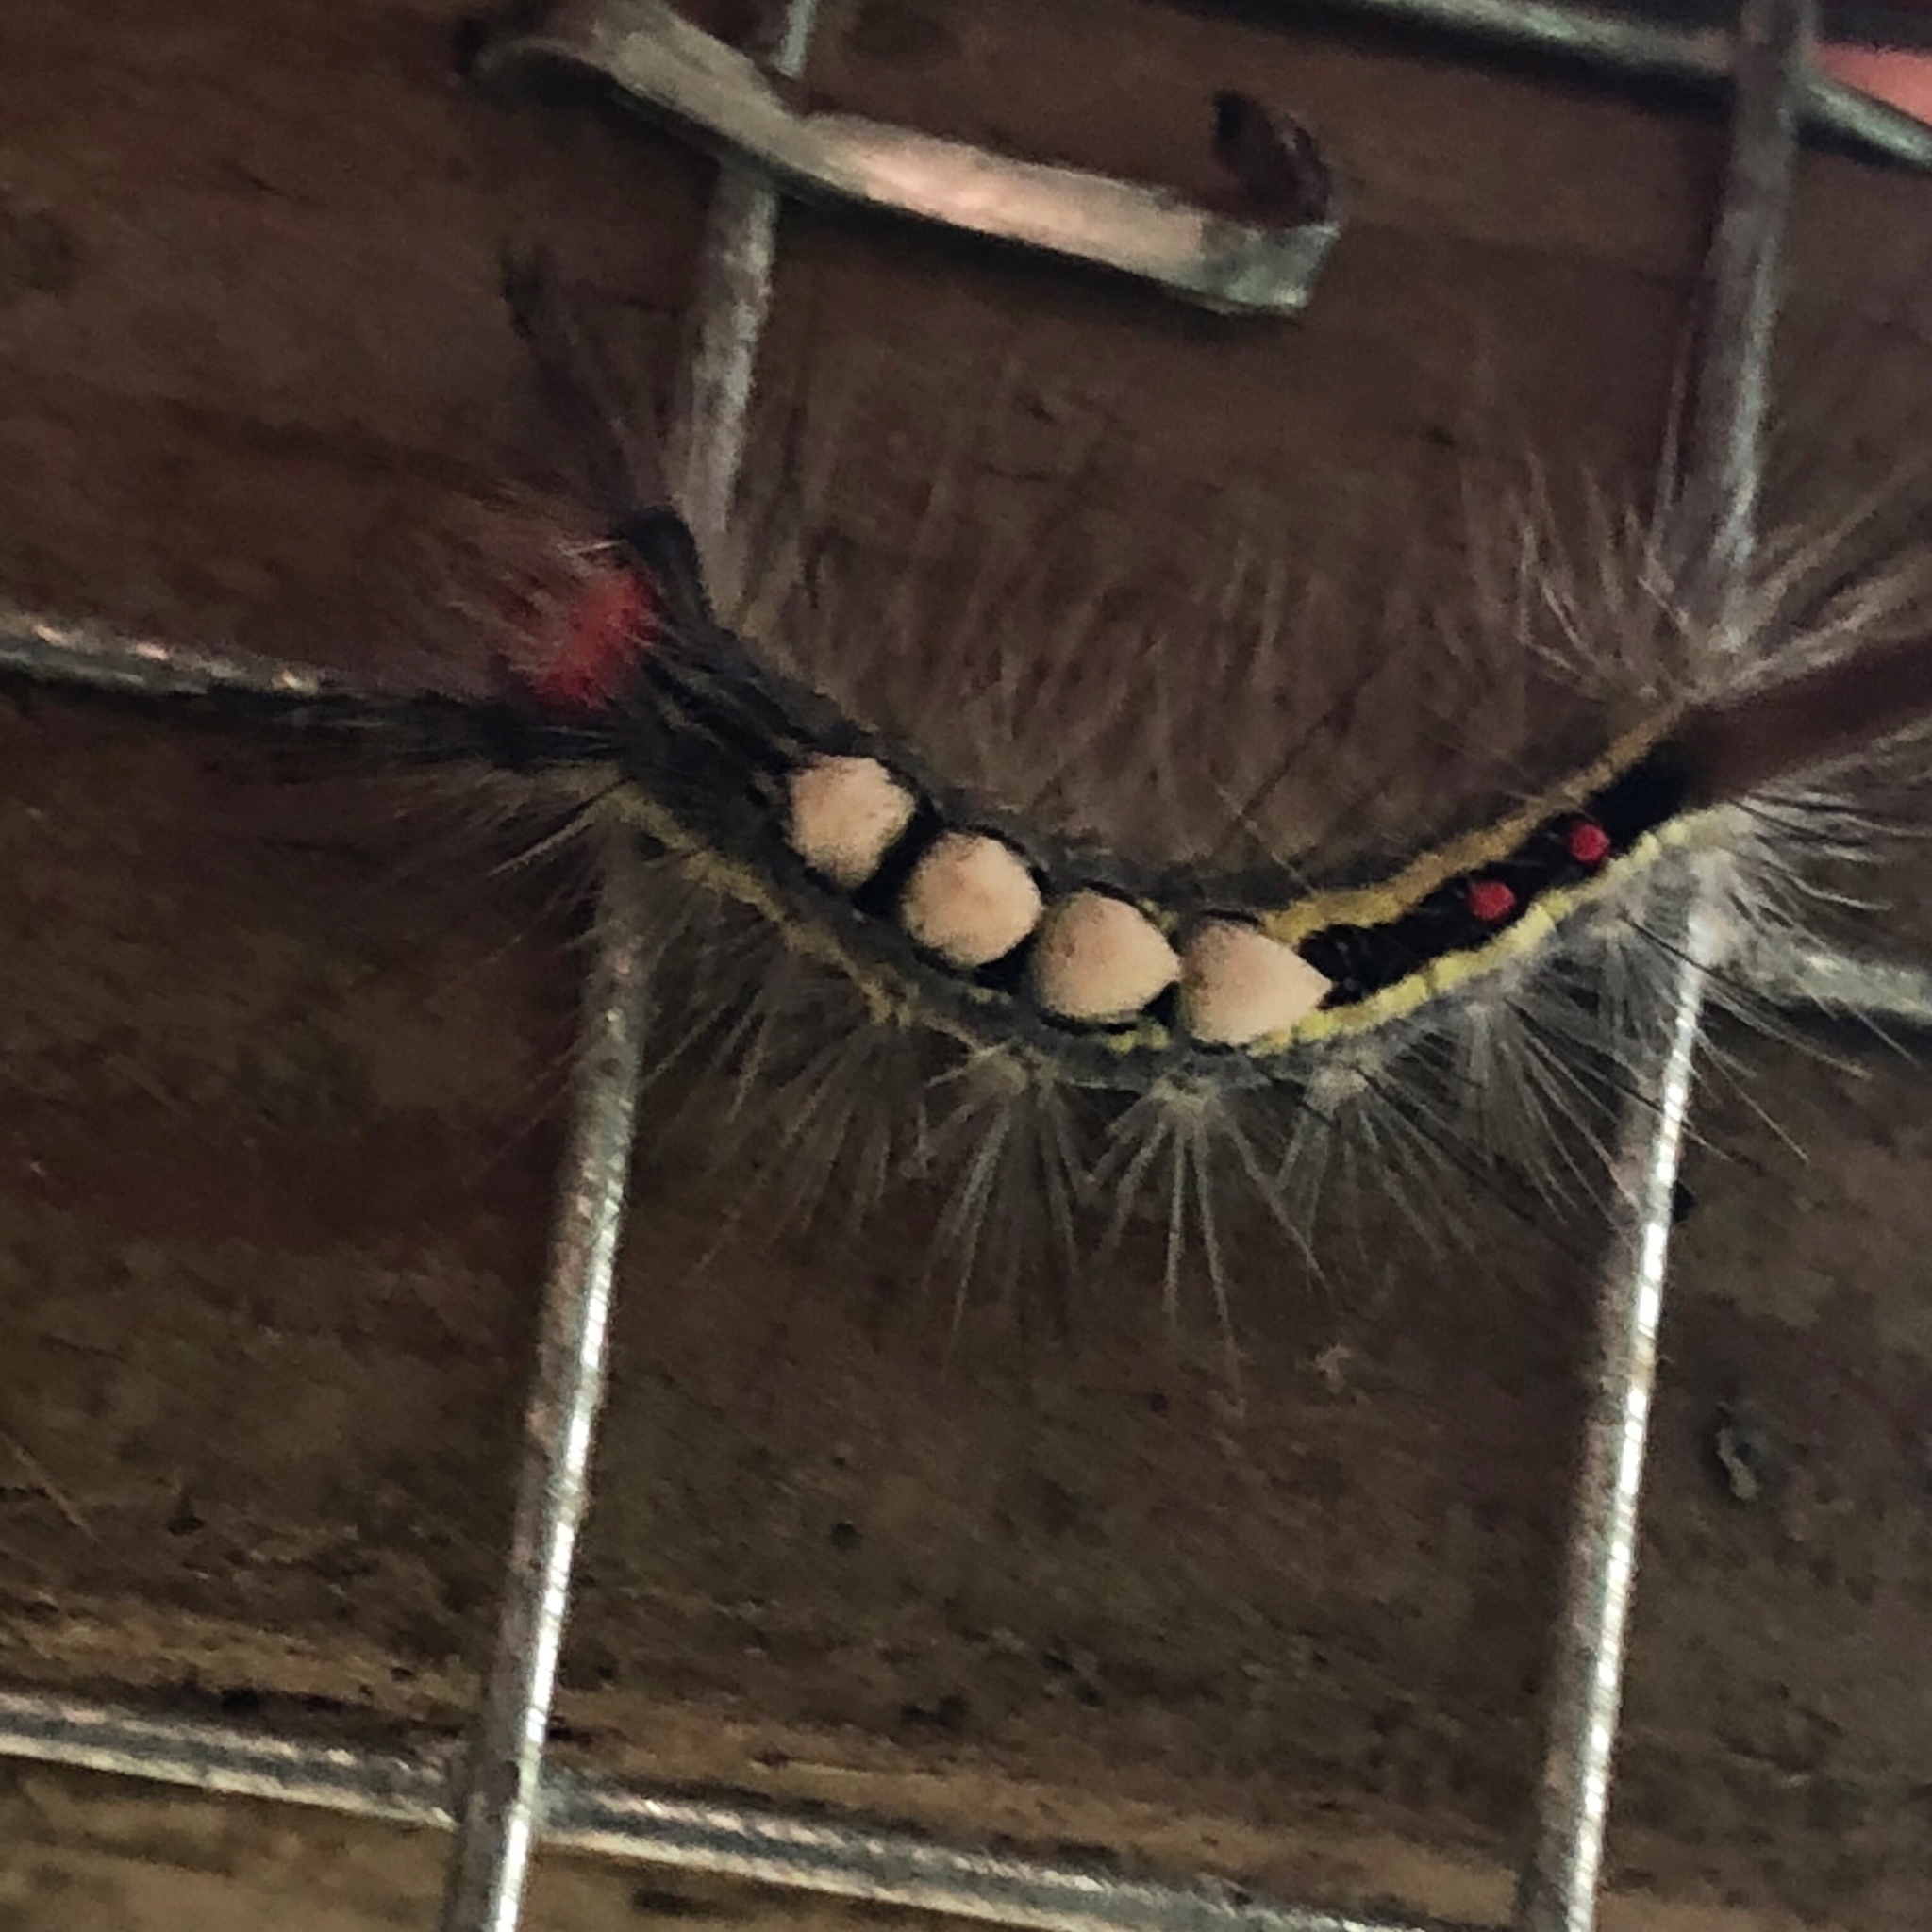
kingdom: Animalia
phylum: Arthropoda
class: Insecta
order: Lepidoptera
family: Erebidae
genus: Orgyia
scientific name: Orgyia leucostigma
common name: White-marked tussock moth
